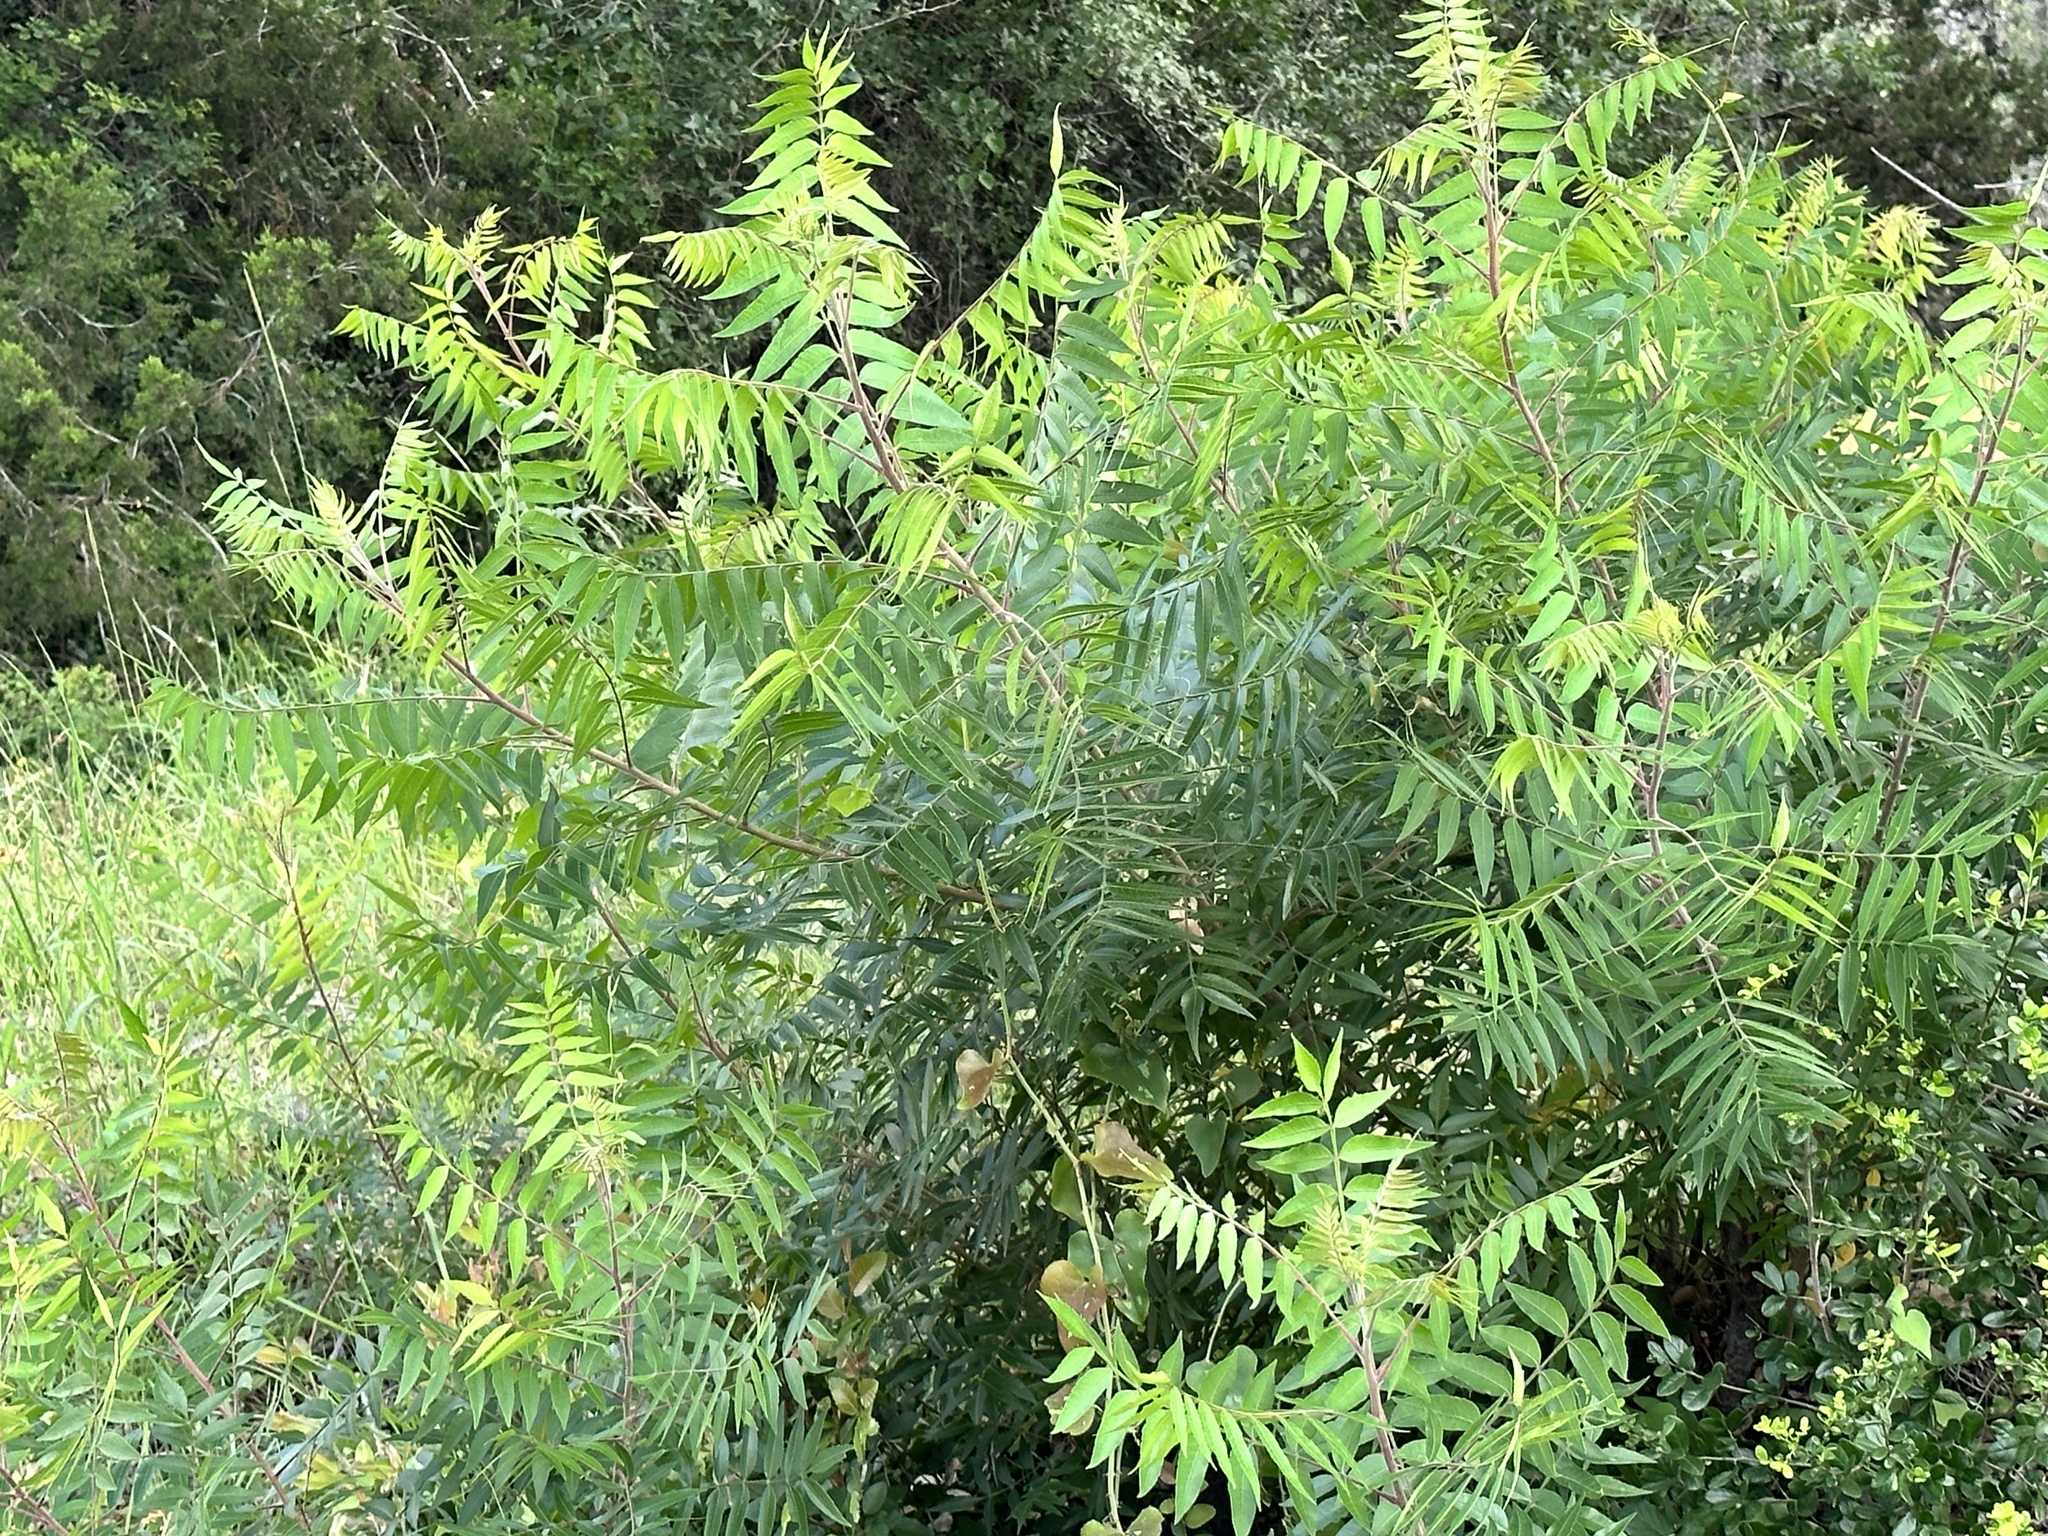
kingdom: Plantae
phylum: Tracheophyta
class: Magnoliopsida
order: Sapindales
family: Anacardiaceae
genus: Rhus
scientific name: Rhus lanceolata
